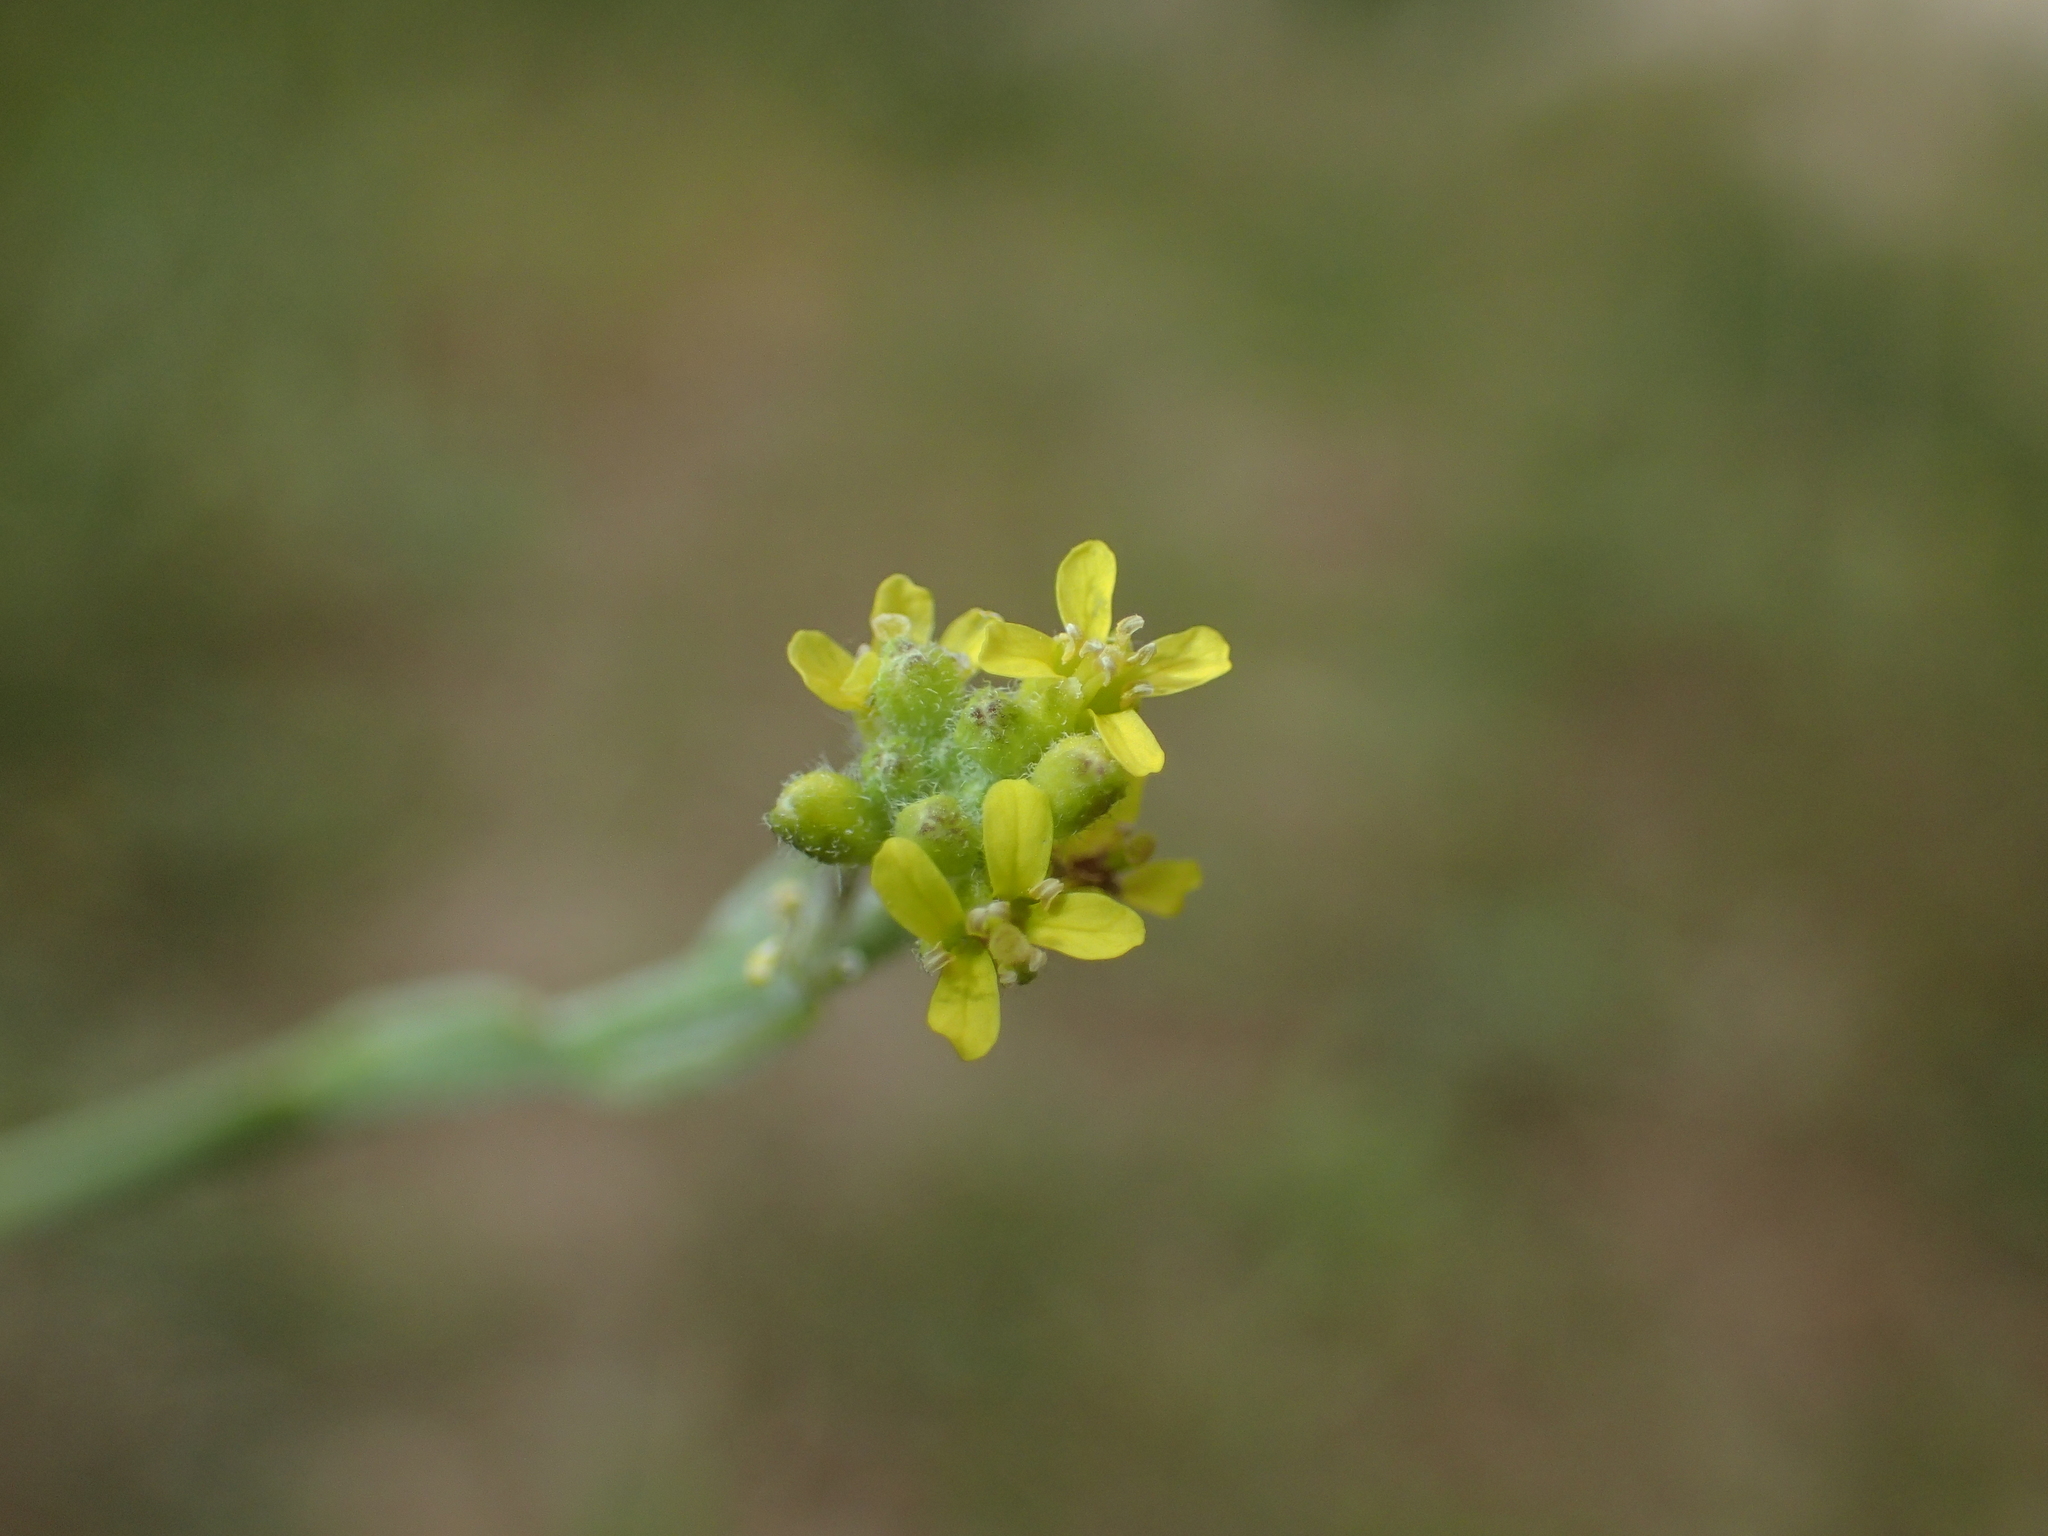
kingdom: Plantae
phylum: Tracheophyta
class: Magnoliopsida
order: Brassicales
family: Brassicaceae
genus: Sisymbrium
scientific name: Sisymbrium officinale
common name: Hedge mustard
